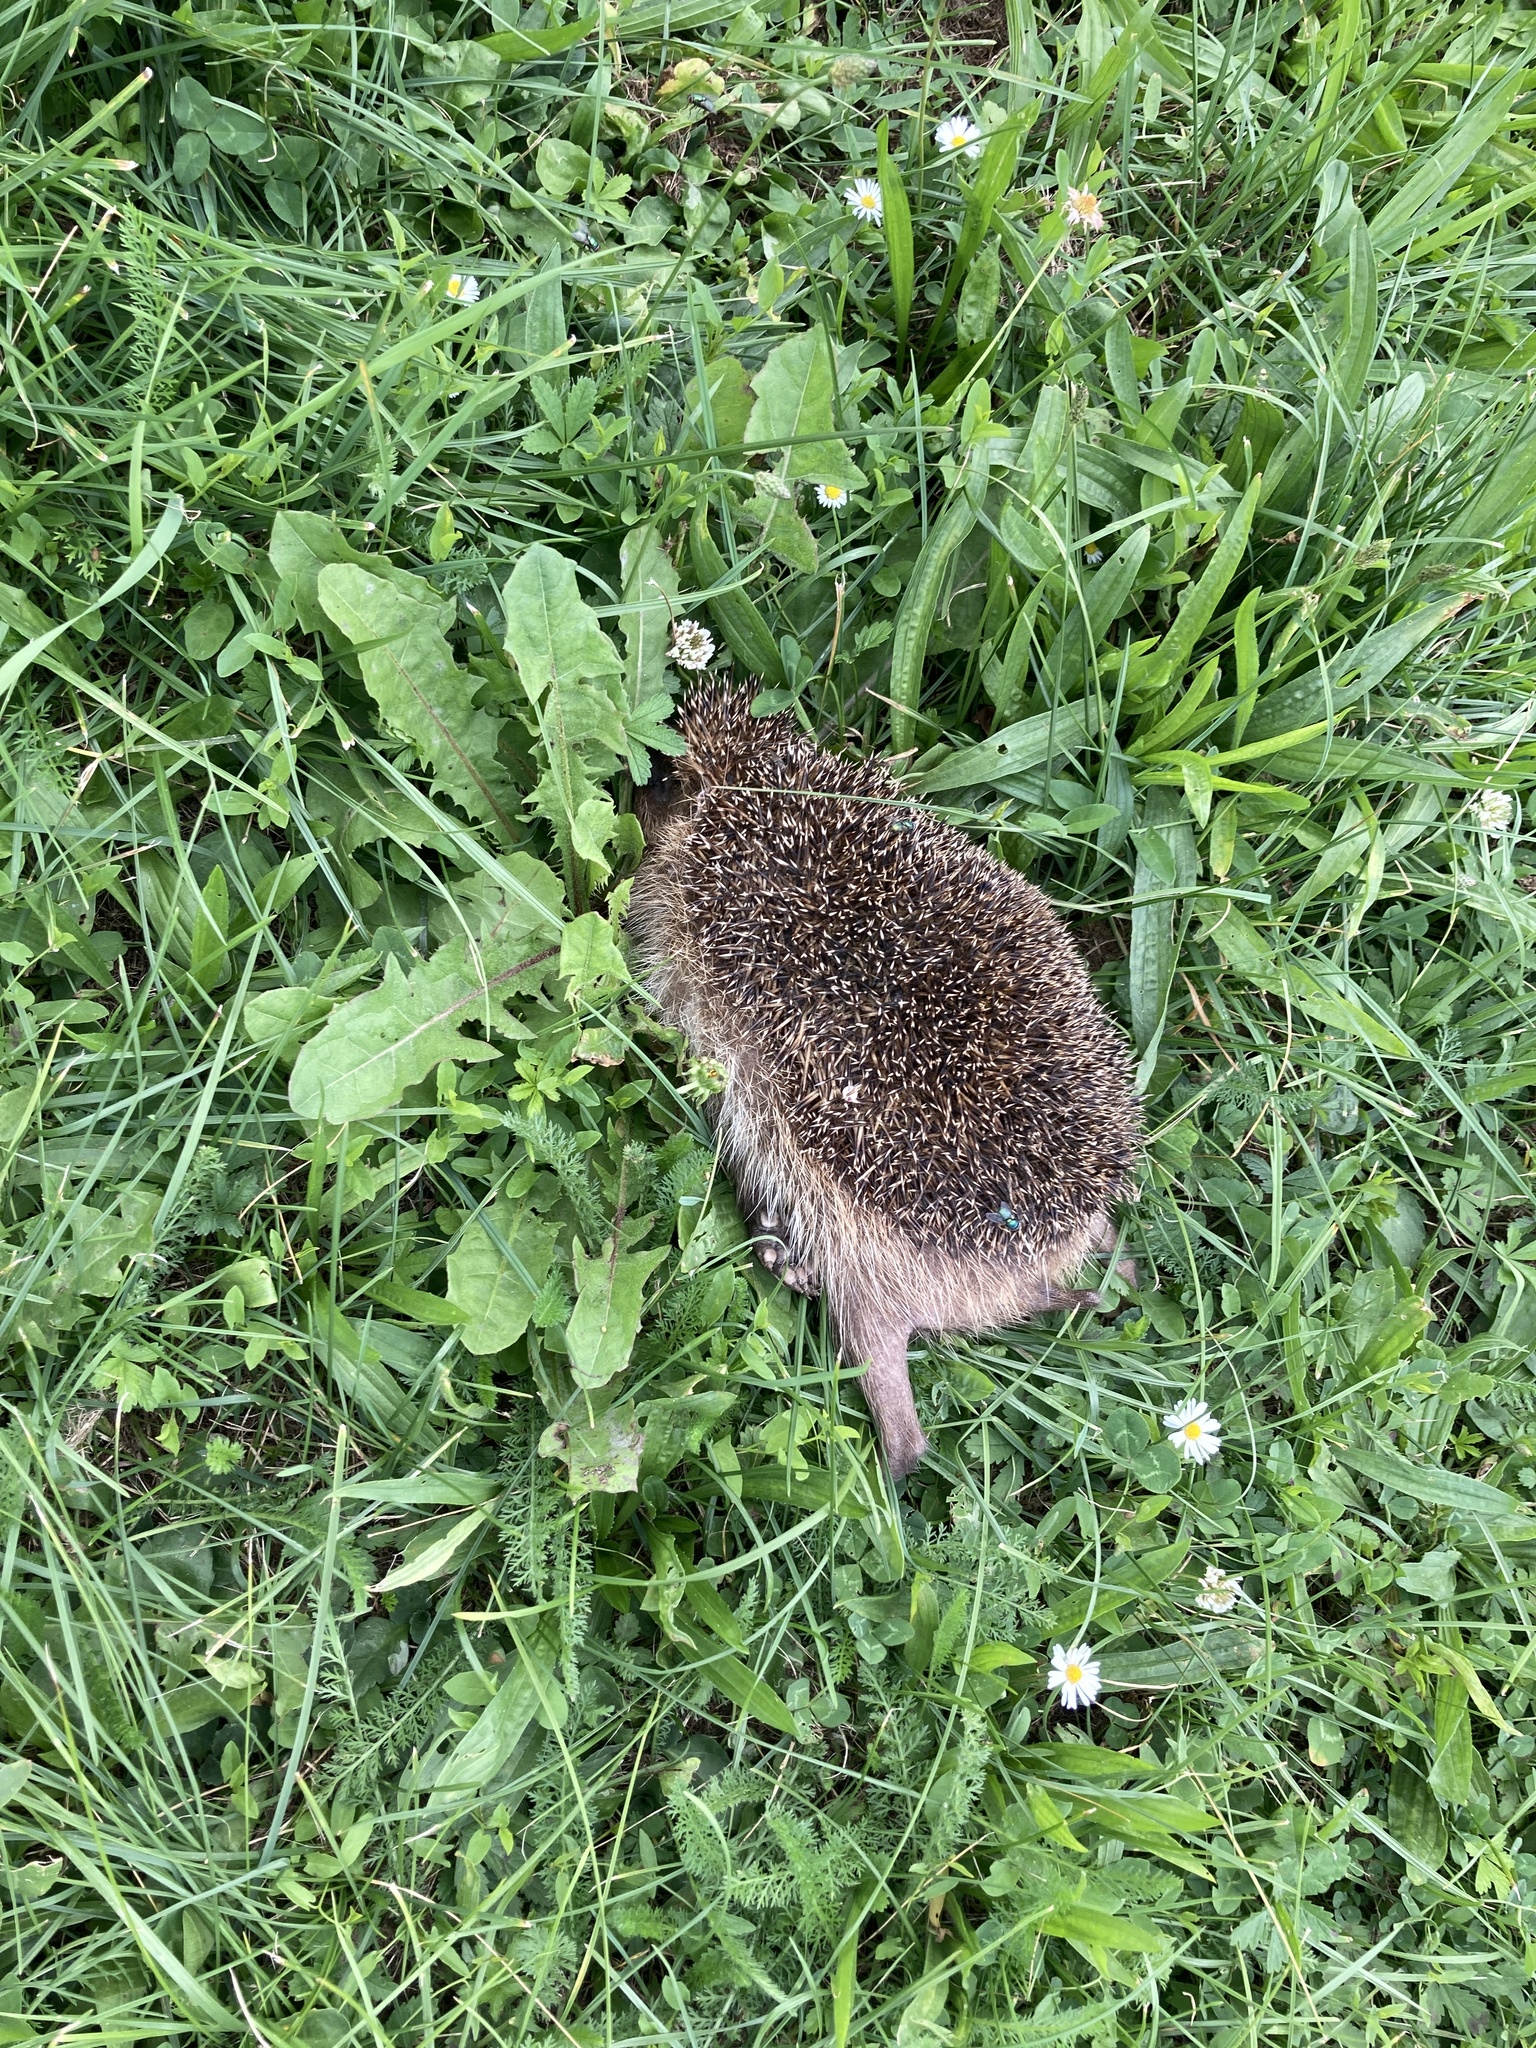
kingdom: Animalia
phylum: Chordata
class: Mammalia
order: Erinaceomorpha
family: Erinaceidae
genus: Erinaceus
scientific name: Erinaceus europaeus
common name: West european hedgehog
